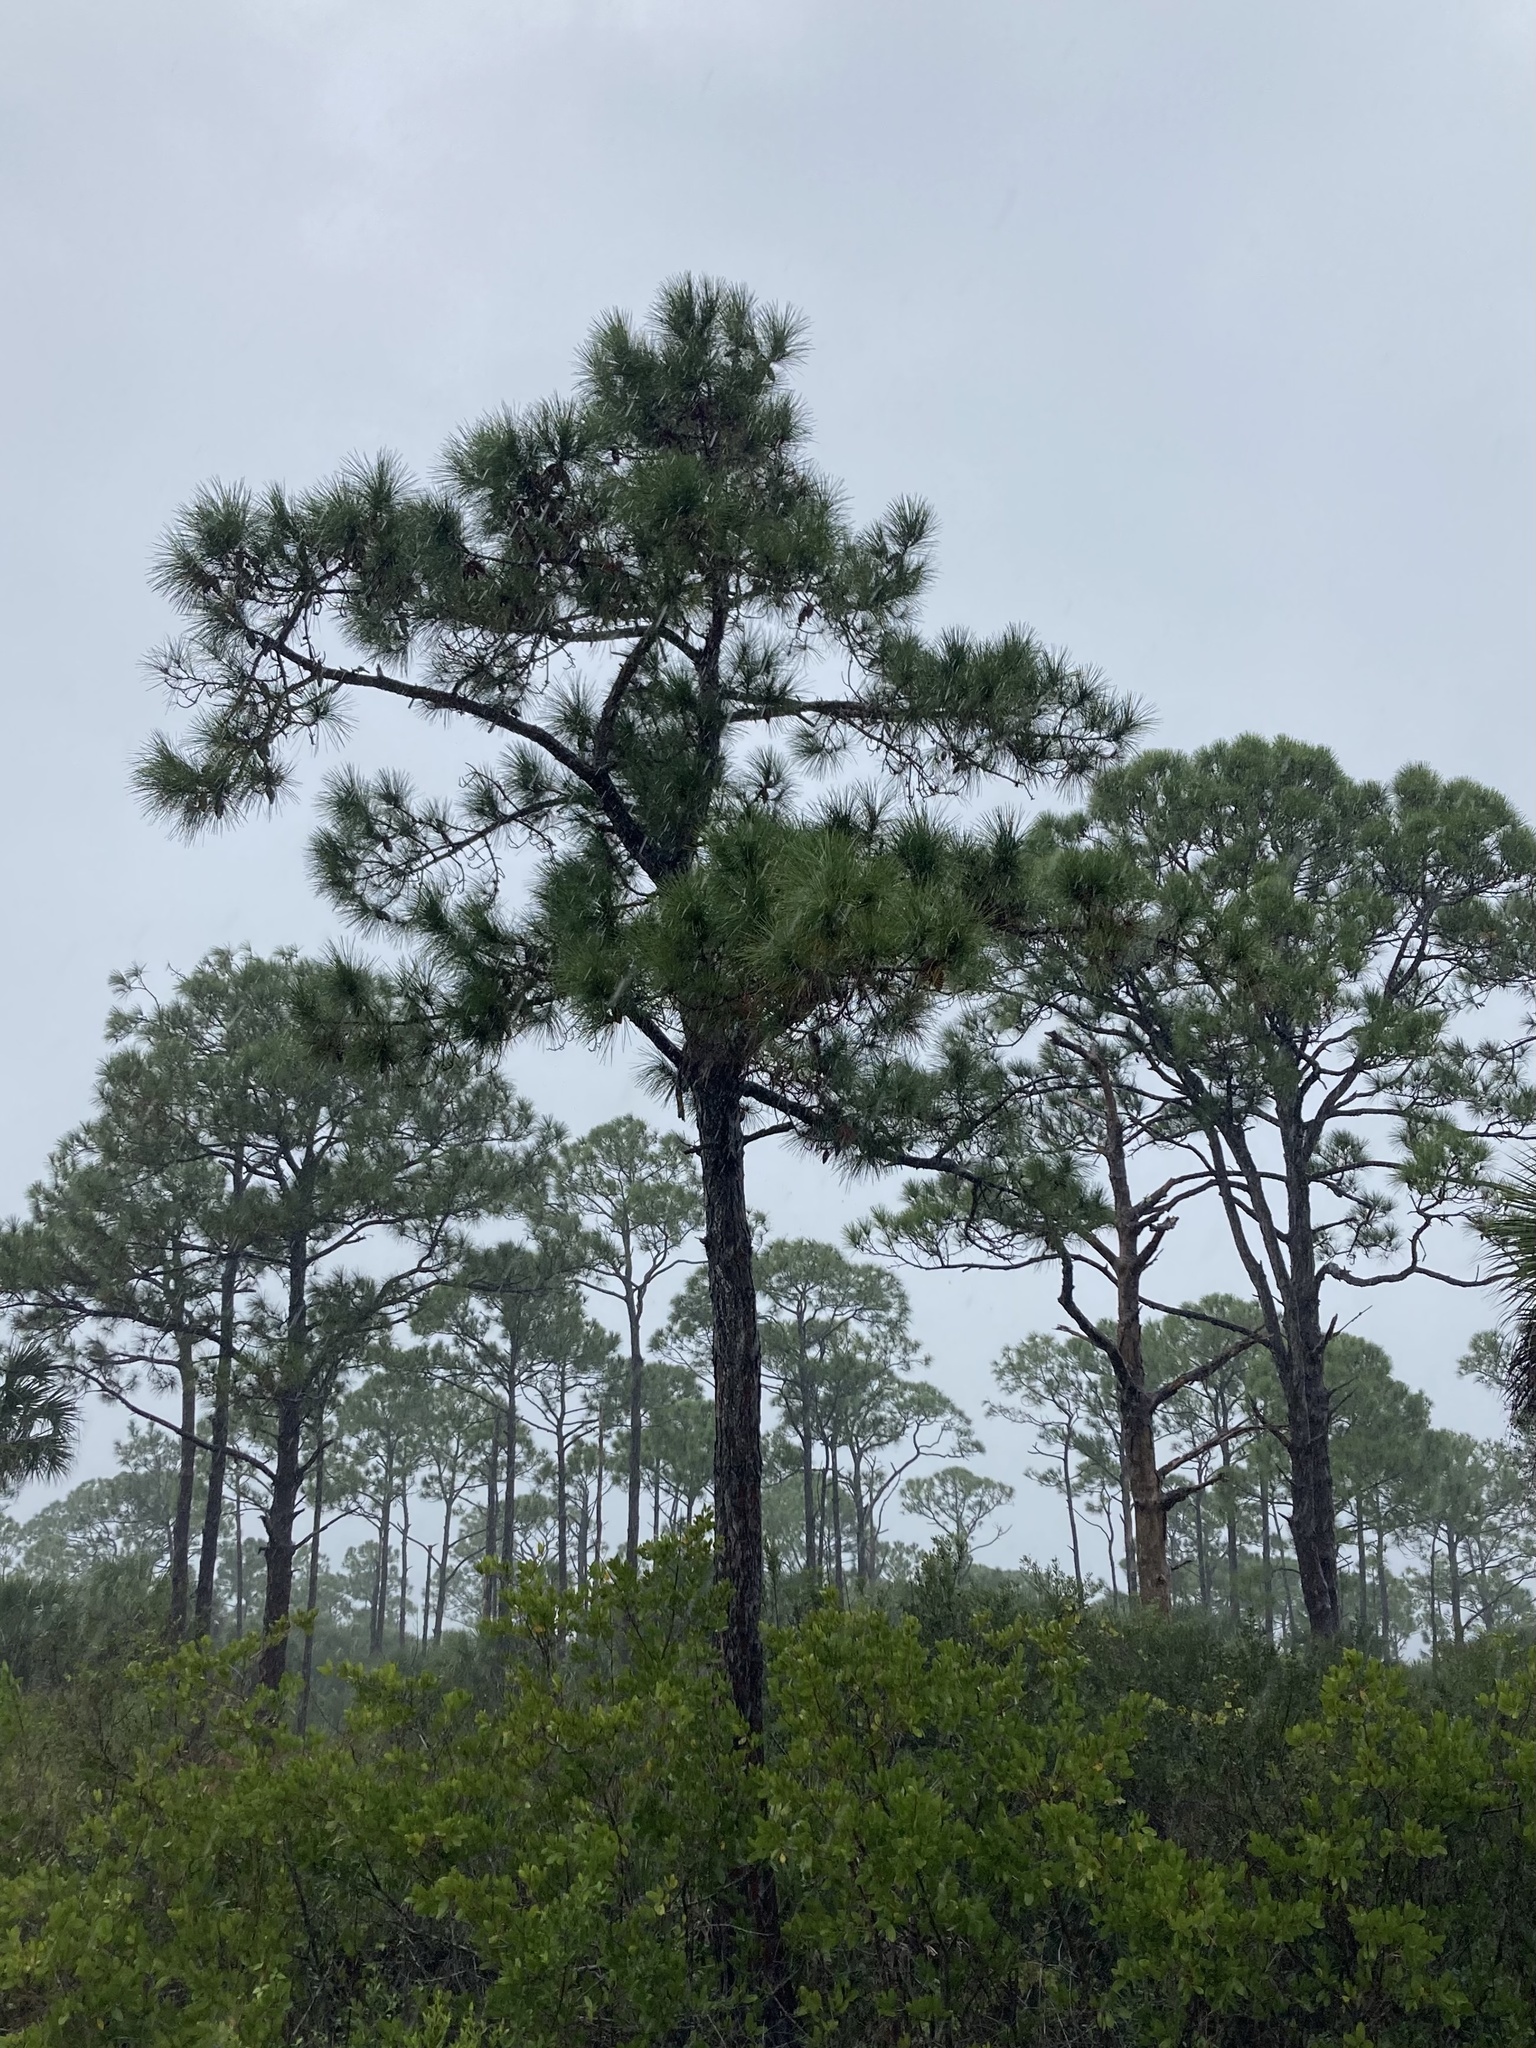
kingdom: Plantae
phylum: Tracheophyta
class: Pinopsida
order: Pinales
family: Pinaceae
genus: Pinus
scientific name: Pinus elliottii
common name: Slash pine
